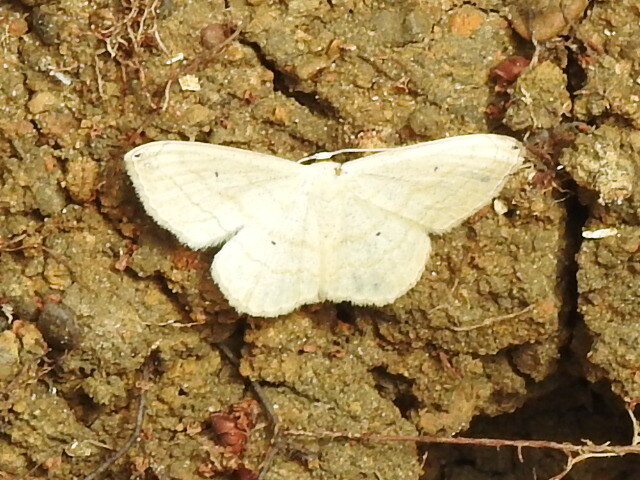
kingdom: Animalia
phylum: Arthropoda
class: Insecta
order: Lepidoptera
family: Geometridae
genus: Scopula
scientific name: Scopula umbilicata
